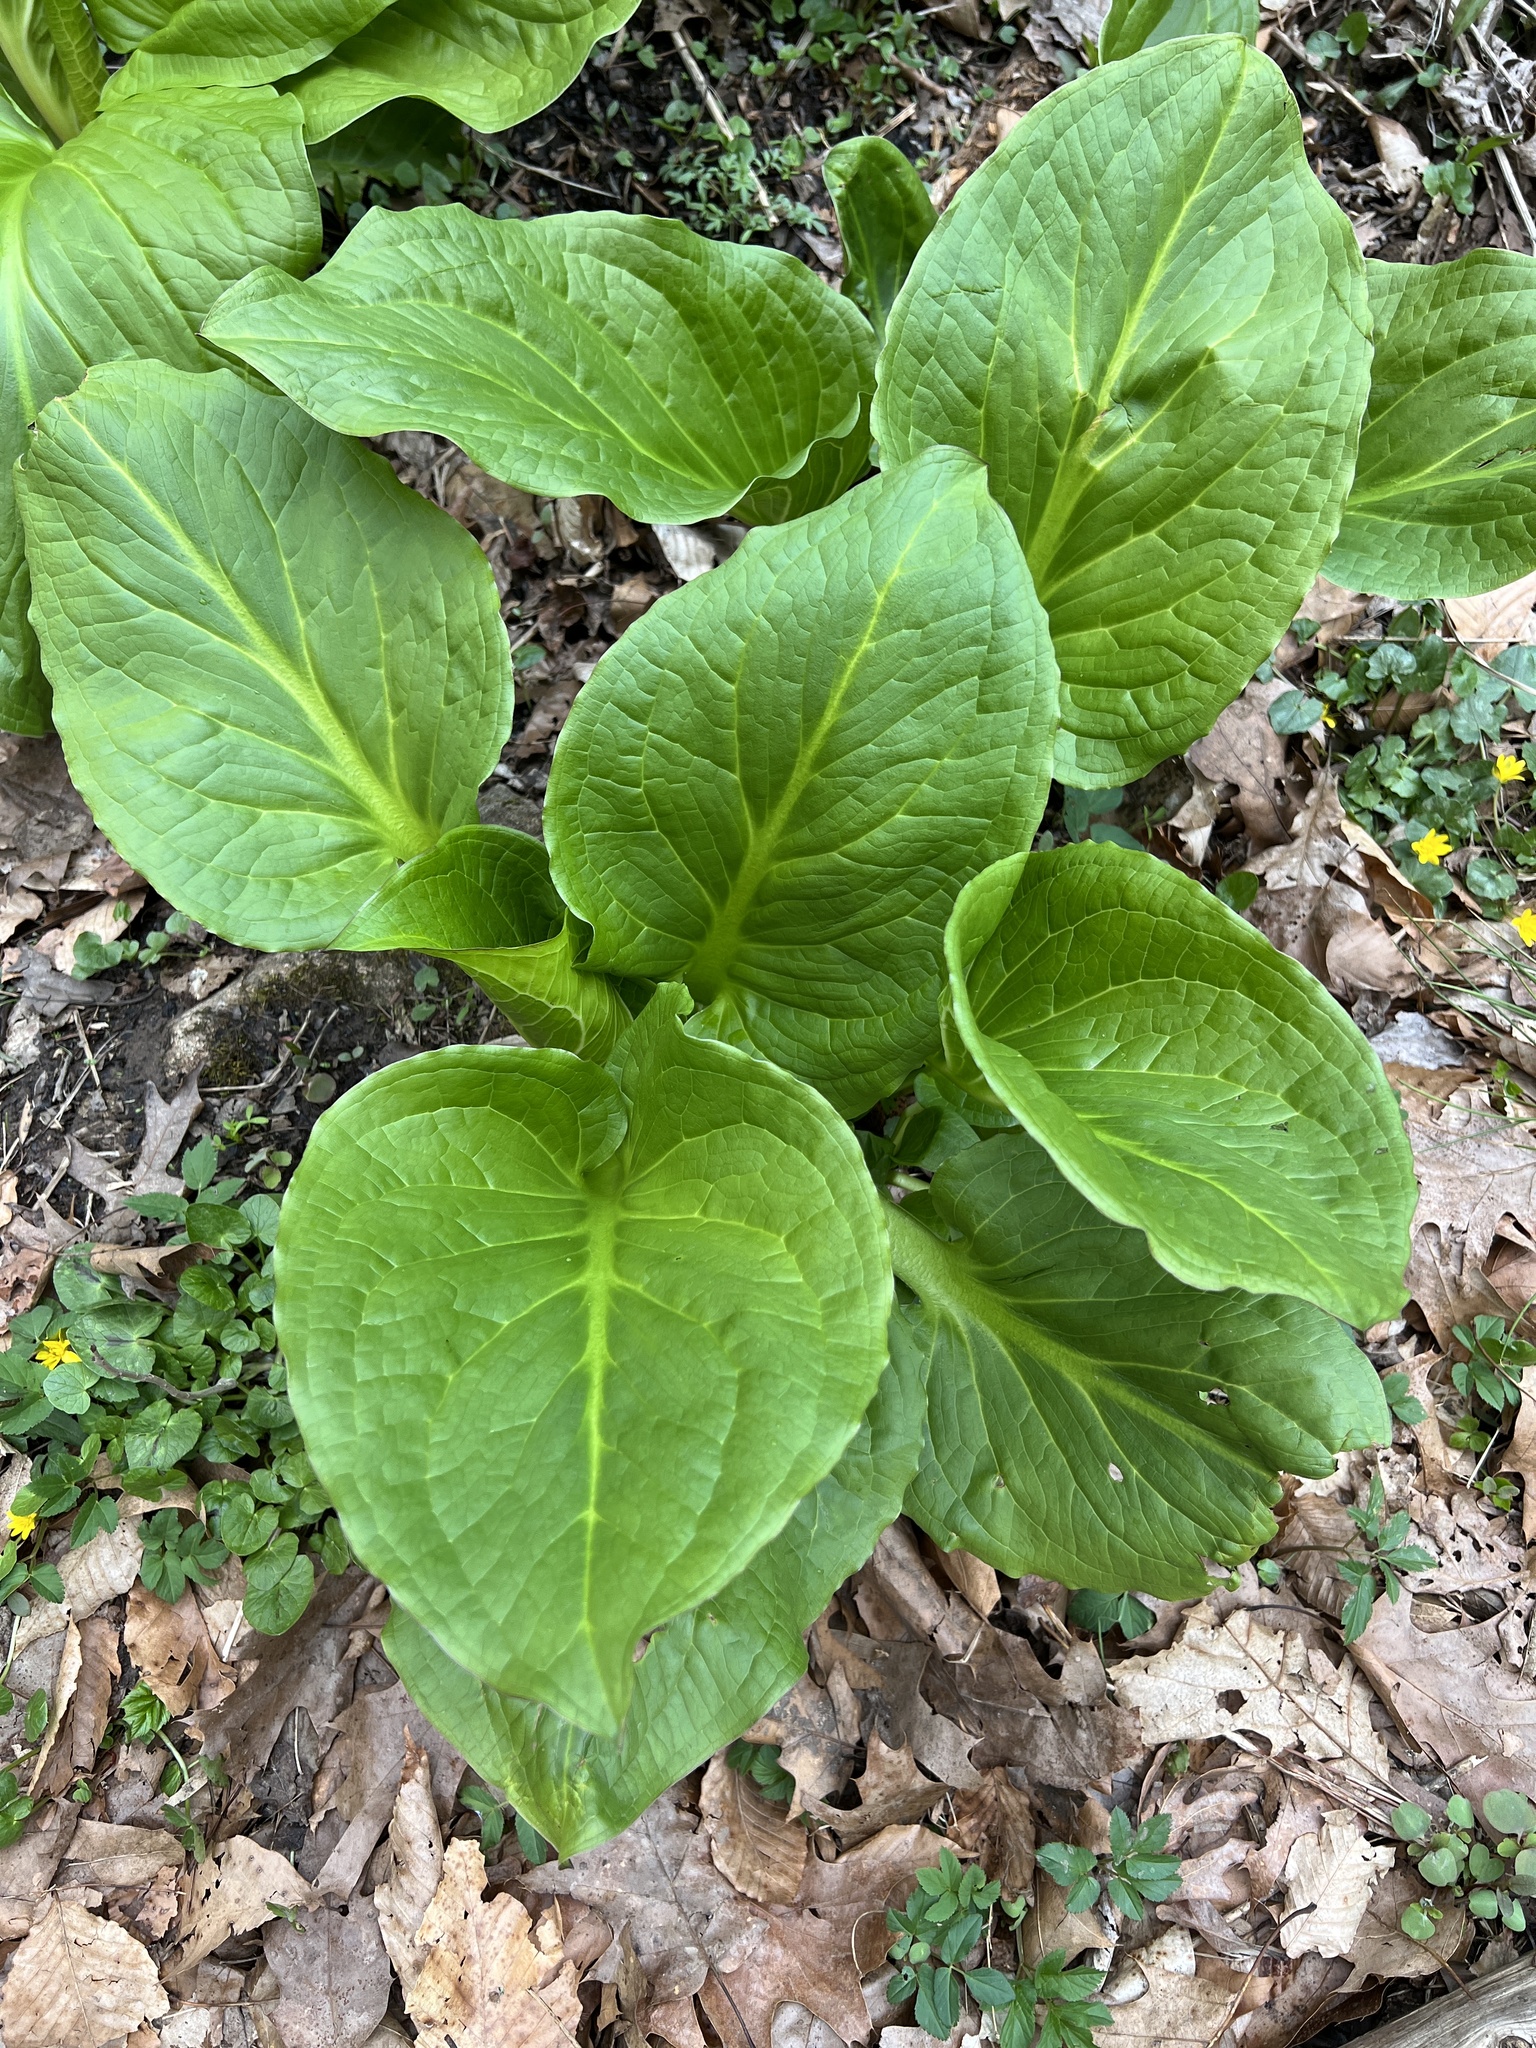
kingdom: Plantae
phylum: Tracheophyta
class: Liliopsida
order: Alismatales
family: Araceae
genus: Symplocarpus
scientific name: Symplocarpus foetidus
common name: Eastern skunk cabbage
